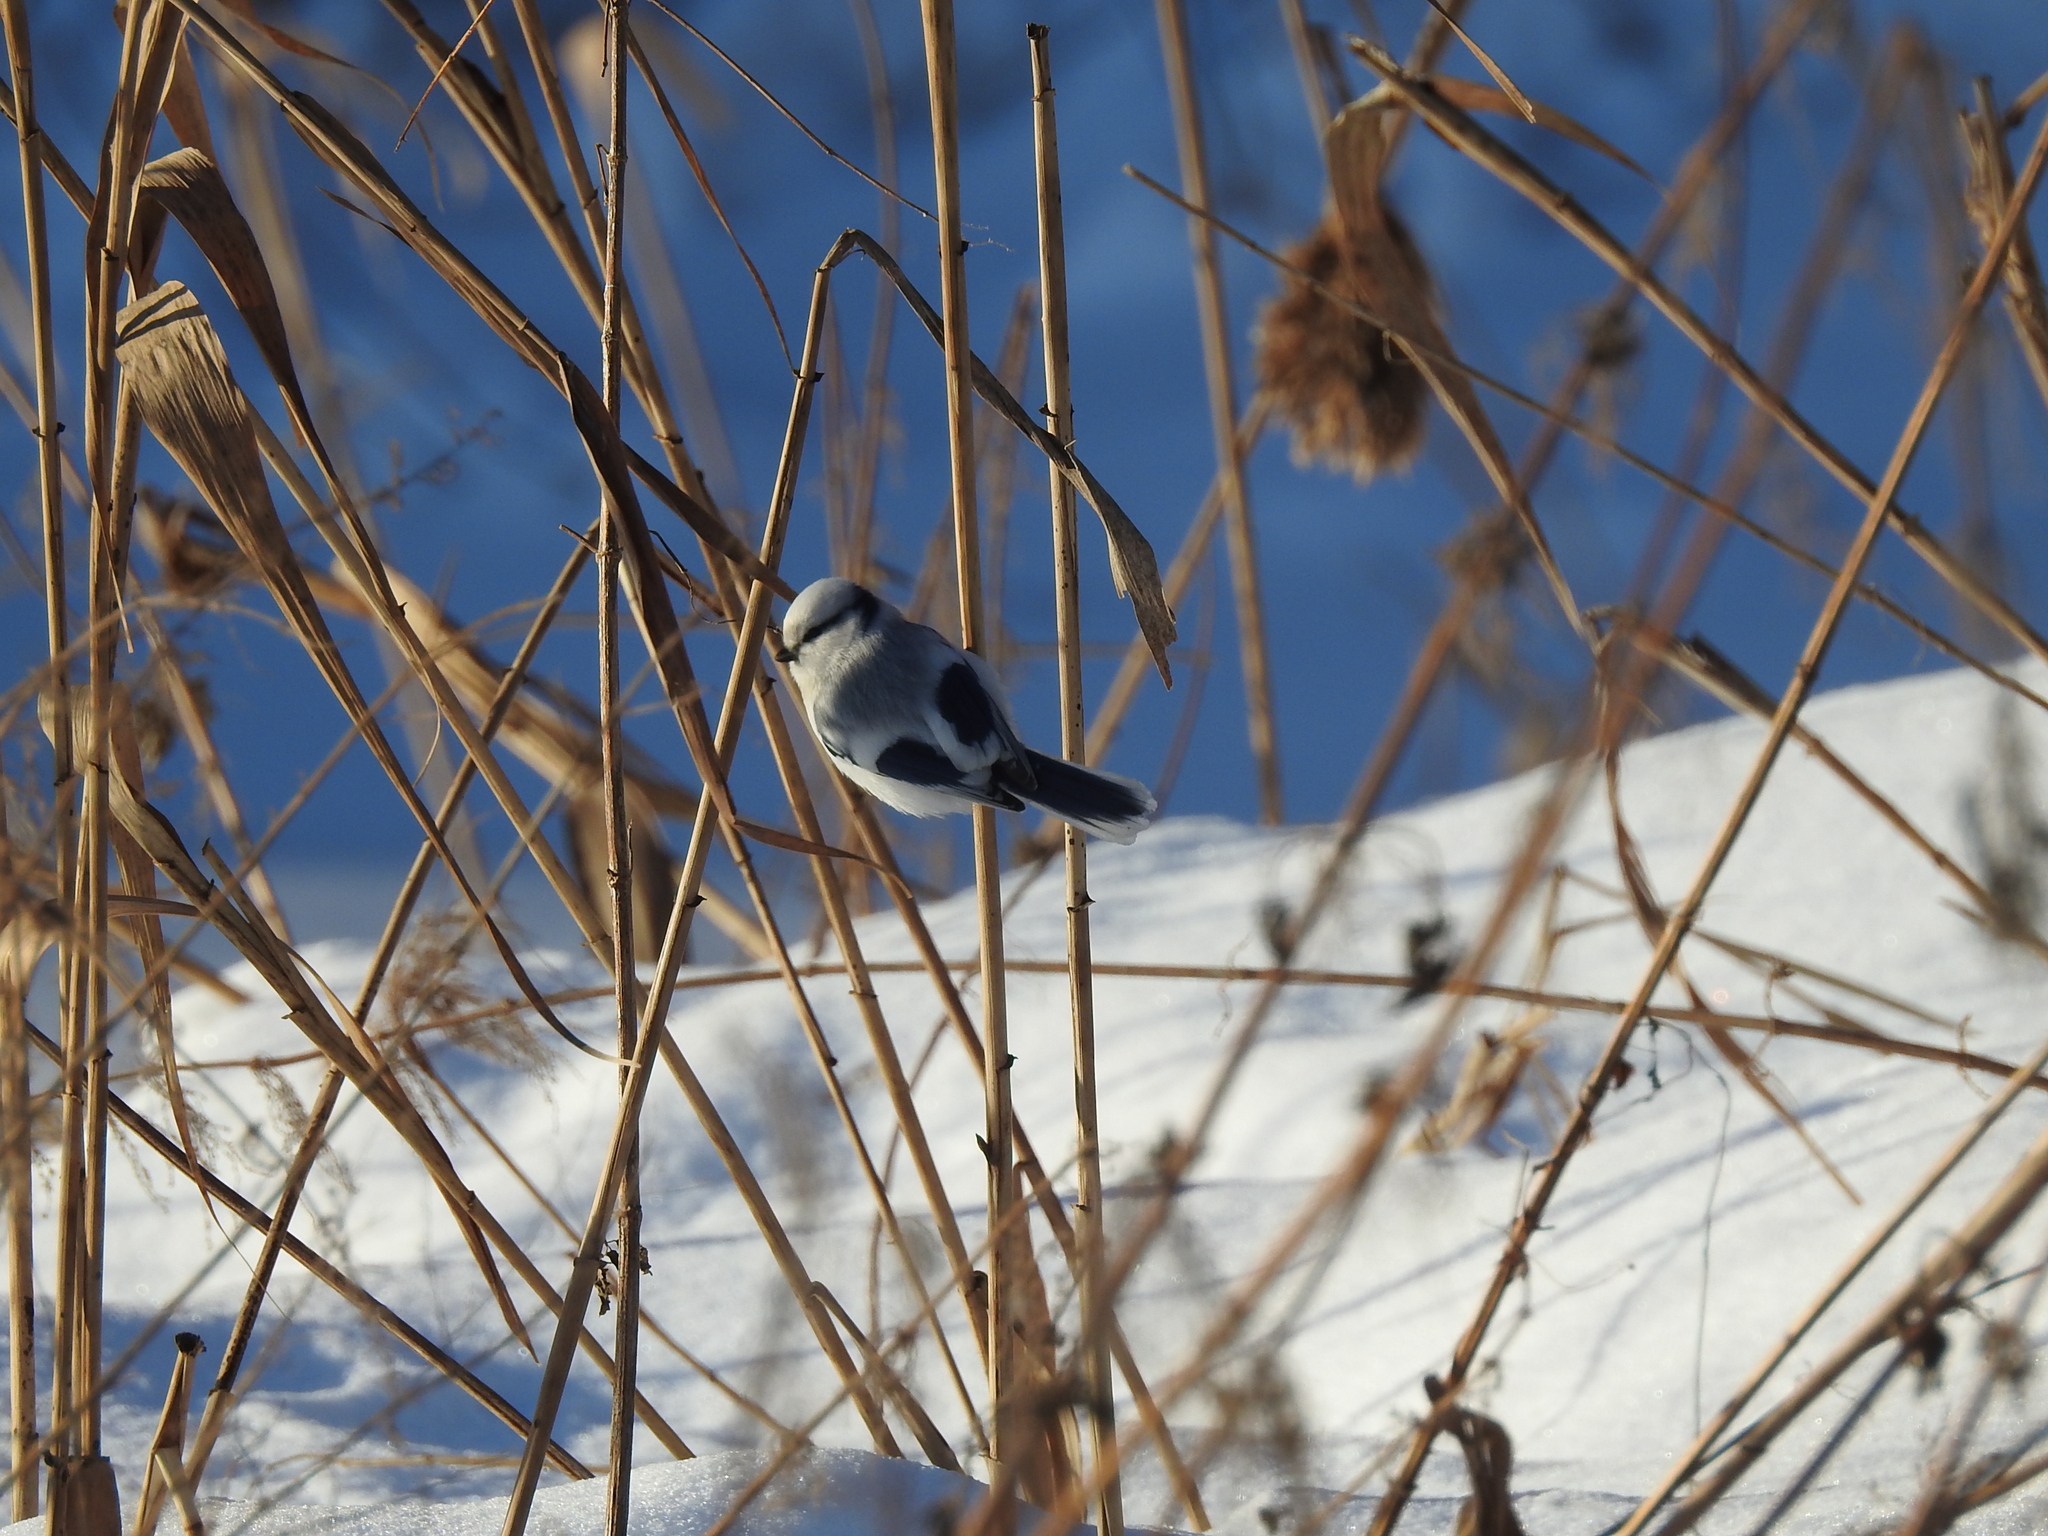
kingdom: Animalia
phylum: Chordata
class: Aves
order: Passeriformes
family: Paridae
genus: Cyanistes
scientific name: Cyanistes cyanus
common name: Azure tit
